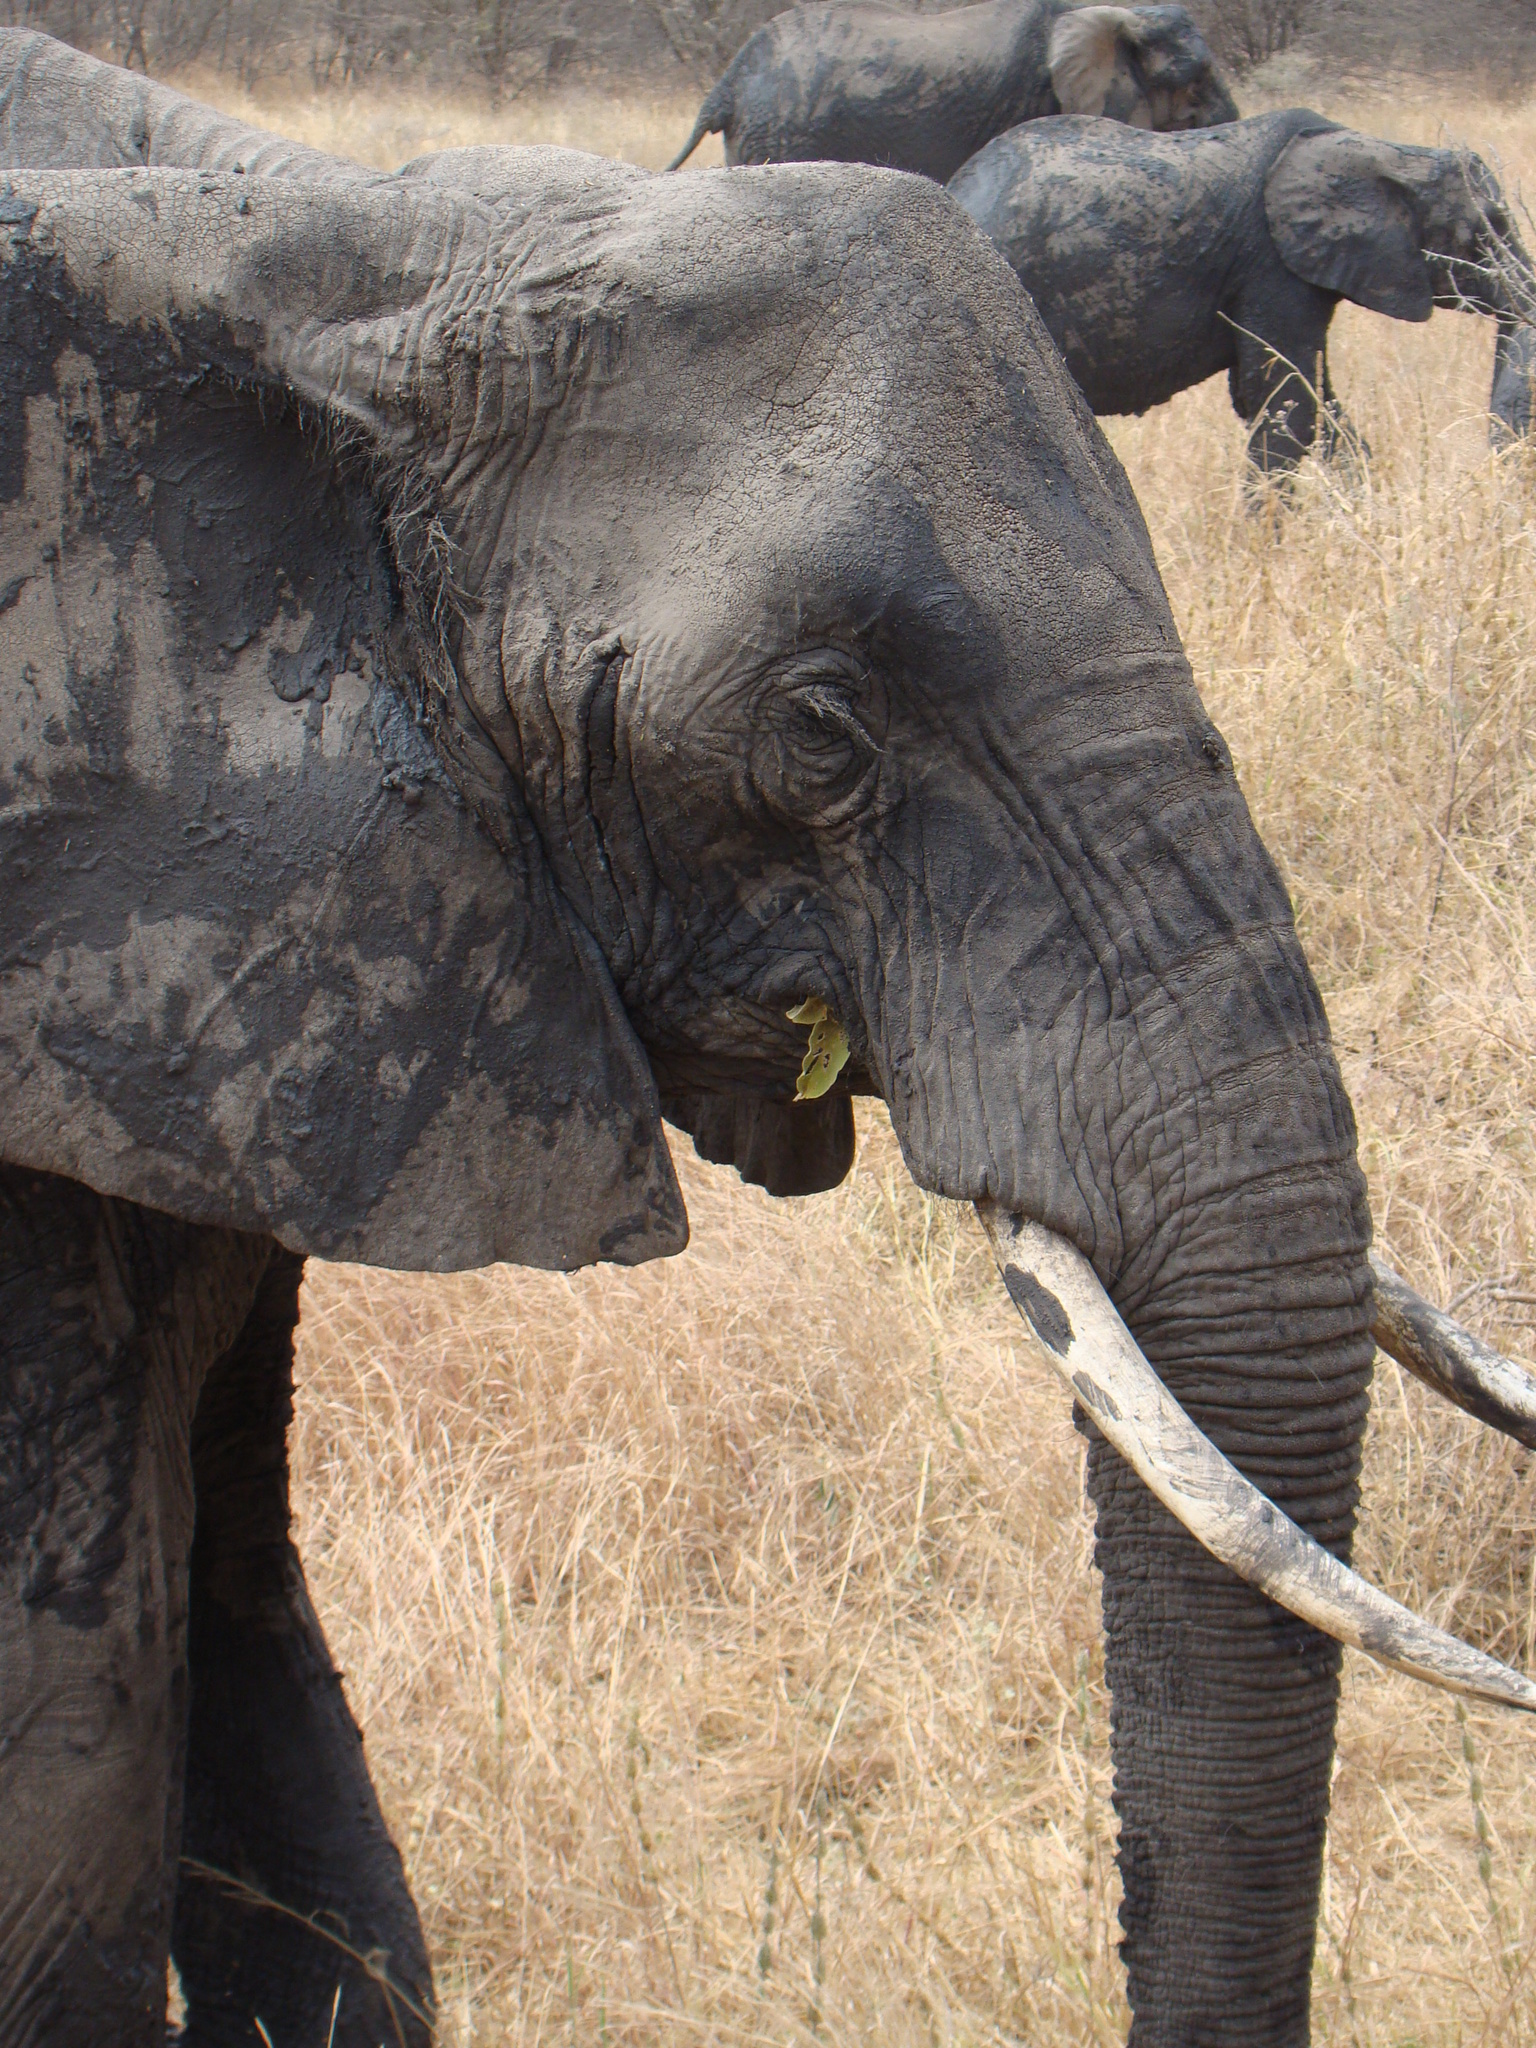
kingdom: Animalia
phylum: Chordata
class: Mammalia
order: Proboscidea
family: Elephantidae
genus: Loxodonta
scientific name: Loxodonta africana
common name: African elephant
